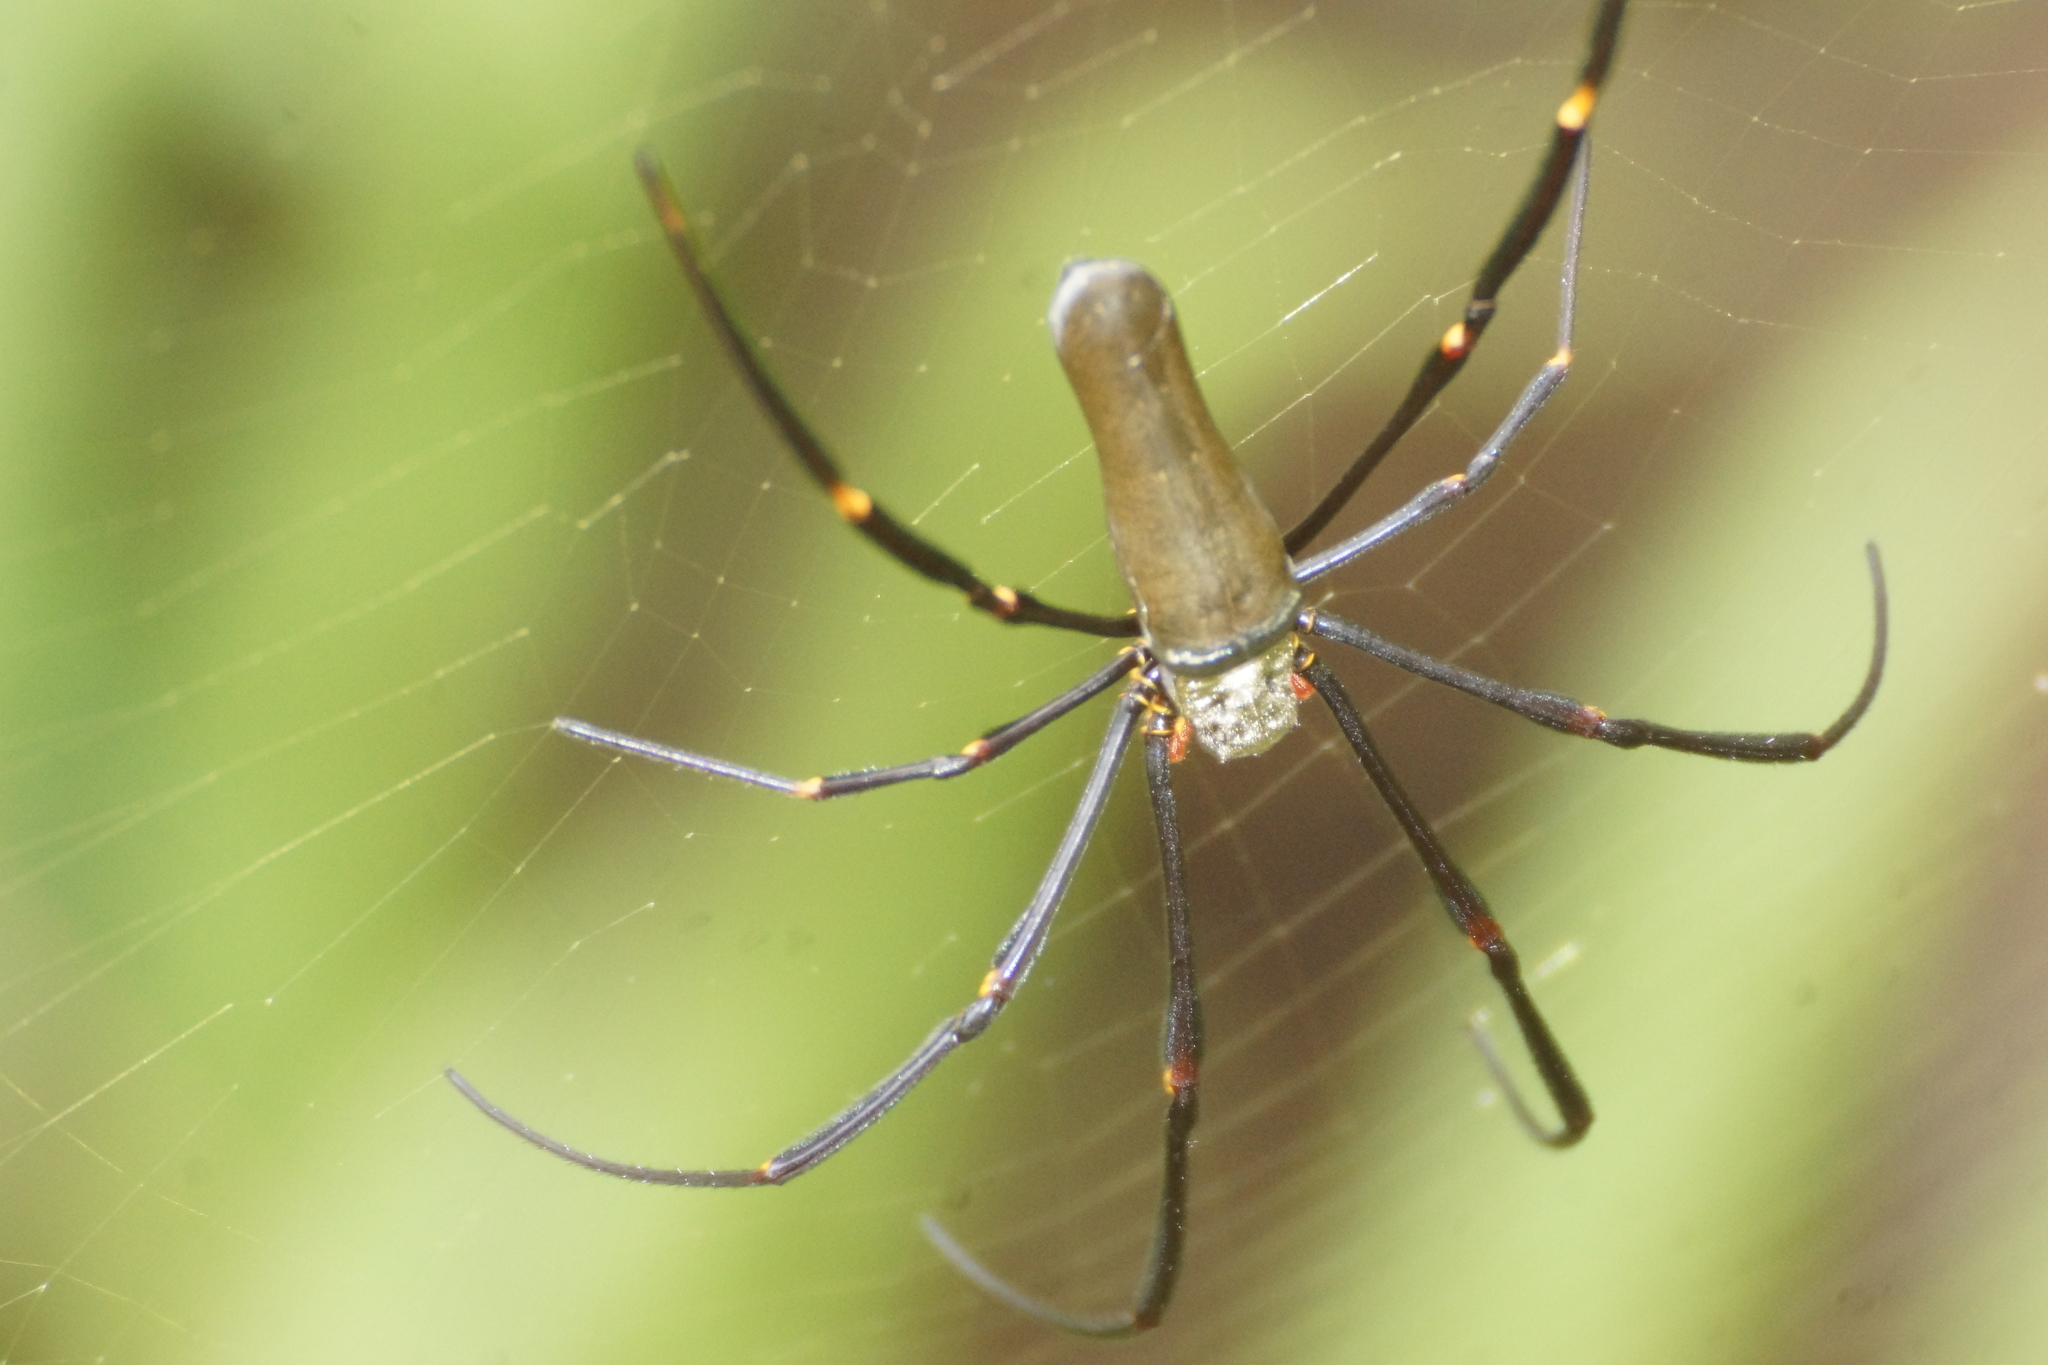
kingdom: Animalia
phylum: Arthropoda
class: Arachnida
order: Araneae
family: Araneidae
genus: Nephila
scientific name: Nephila pilipes
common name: Giant golden orb weaver
